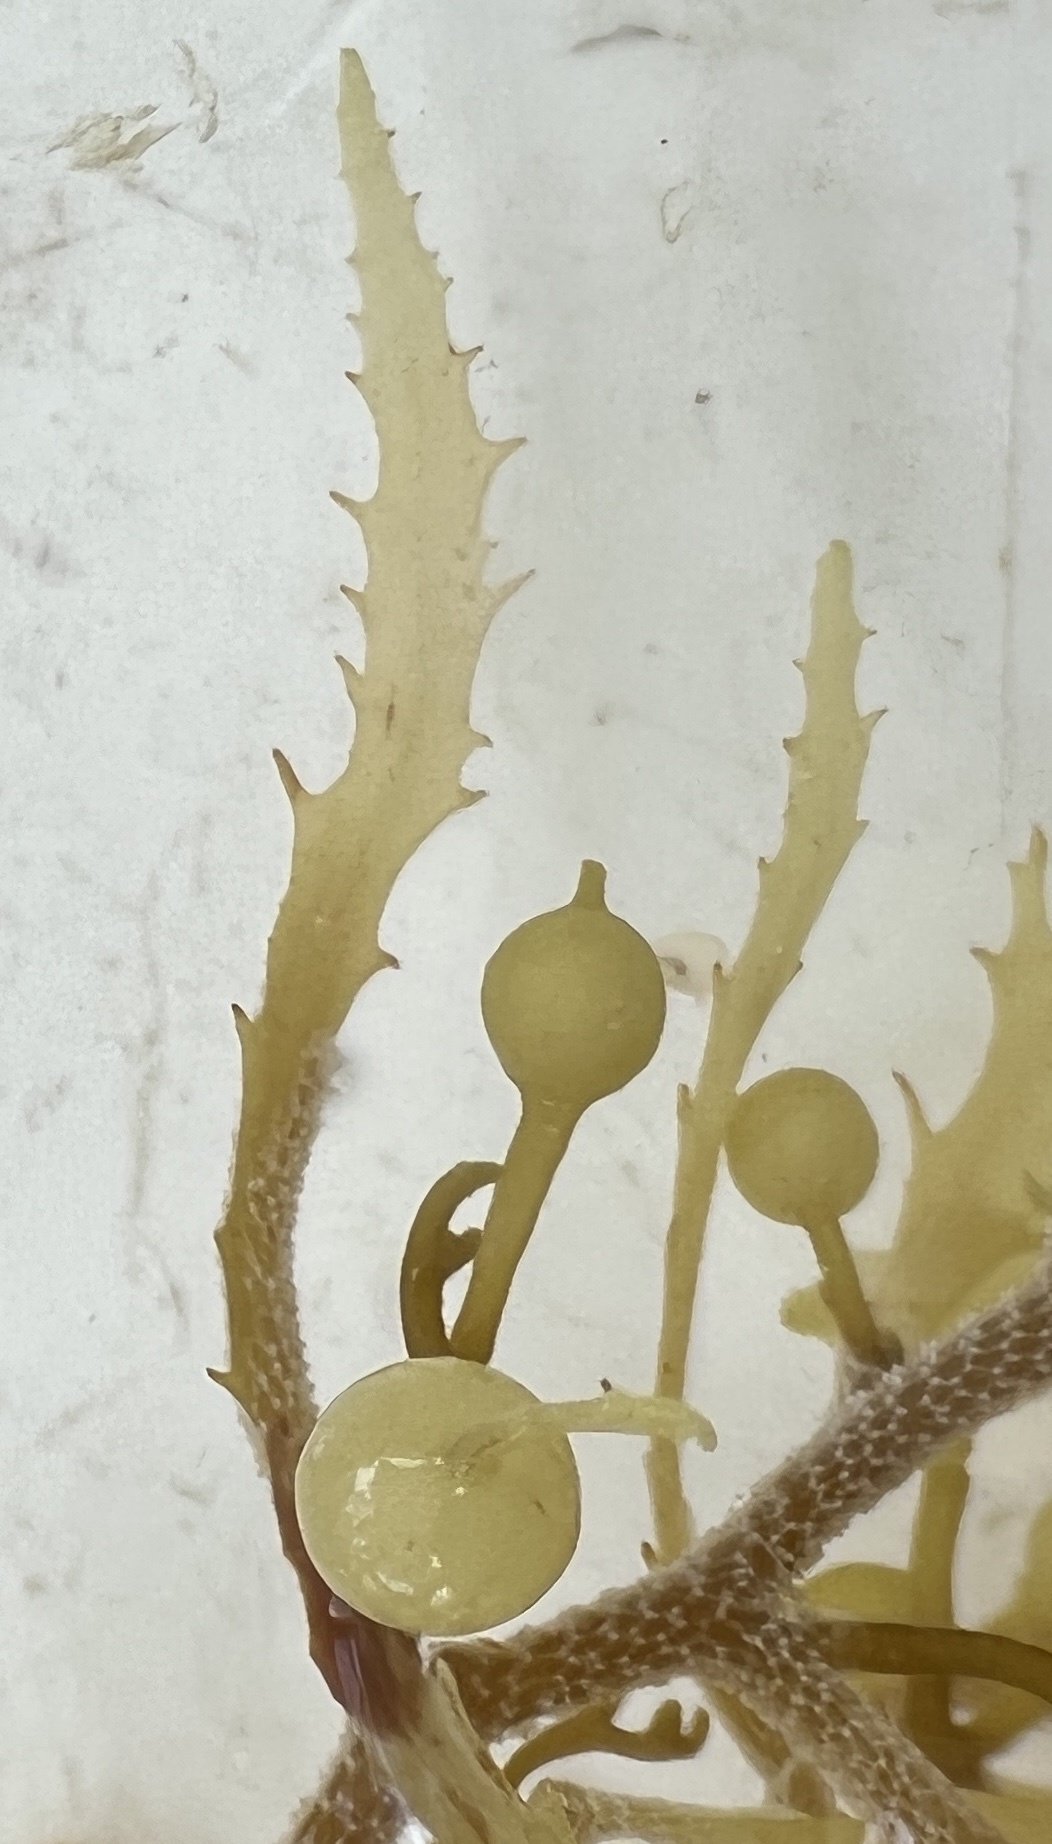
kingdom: Chromista
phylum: Ochrophyta
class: Phaeophyceae
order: Fucales
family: Sargassaceae
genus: Sargassum
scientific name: Sargassum natans
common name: Sargasso weed
